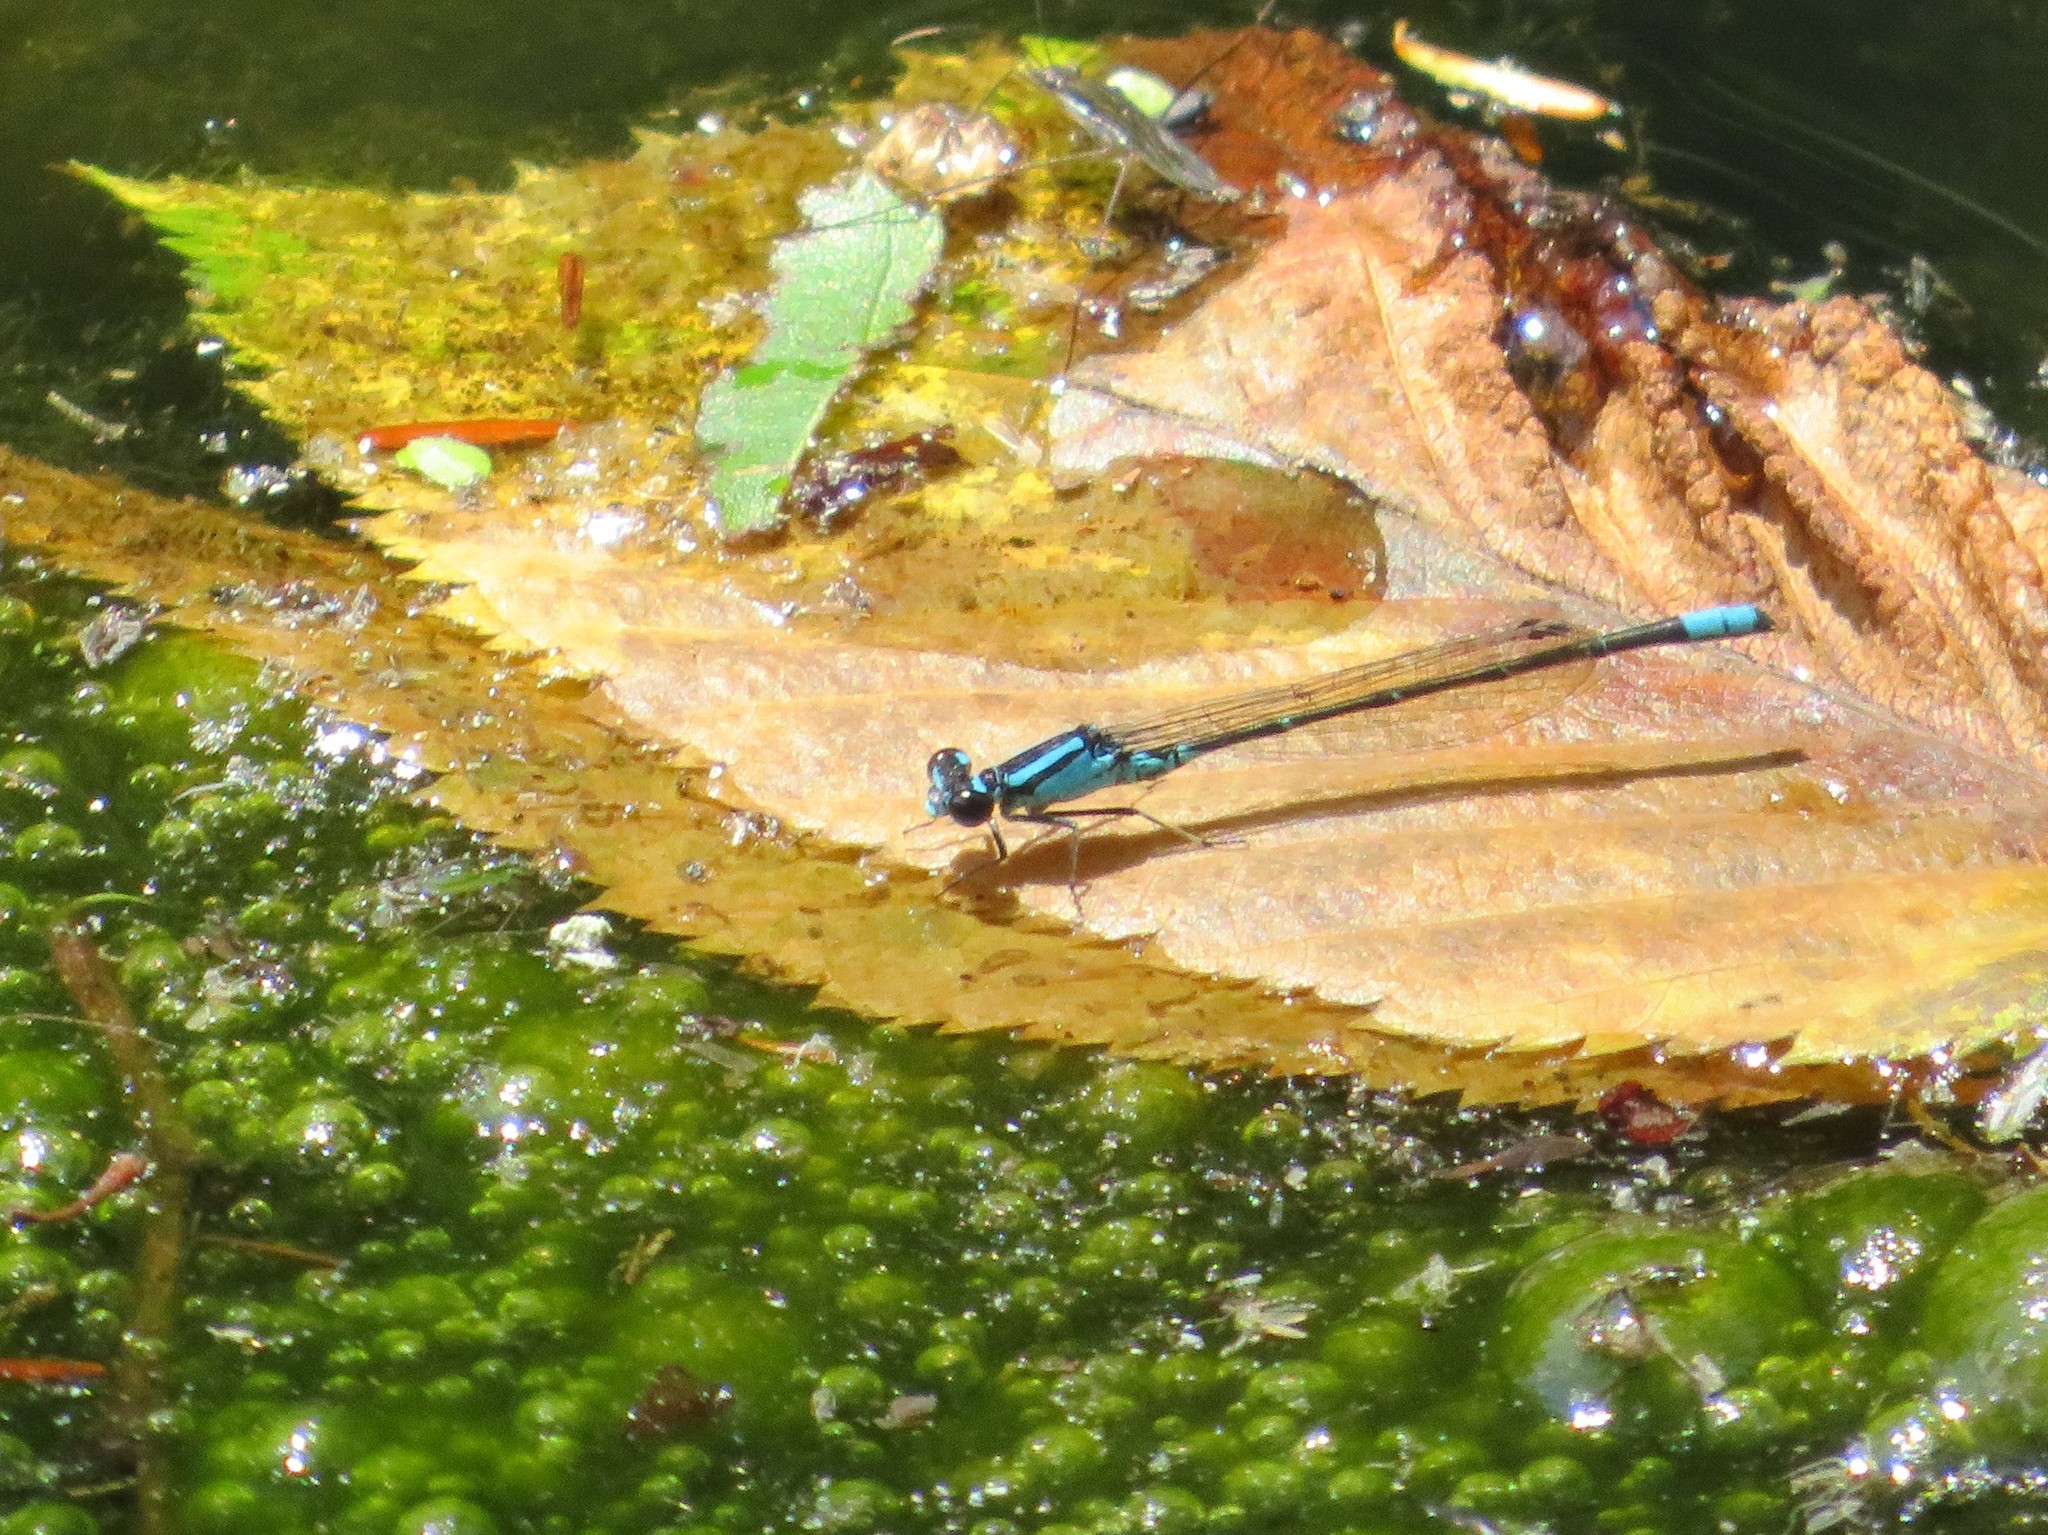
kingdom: Animalia
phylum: Arthropoda
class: Insecta
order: Odonata
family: Coenagrionidae
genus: Enallagma
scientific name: Enallagma geminatum
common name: Skimming bluet
